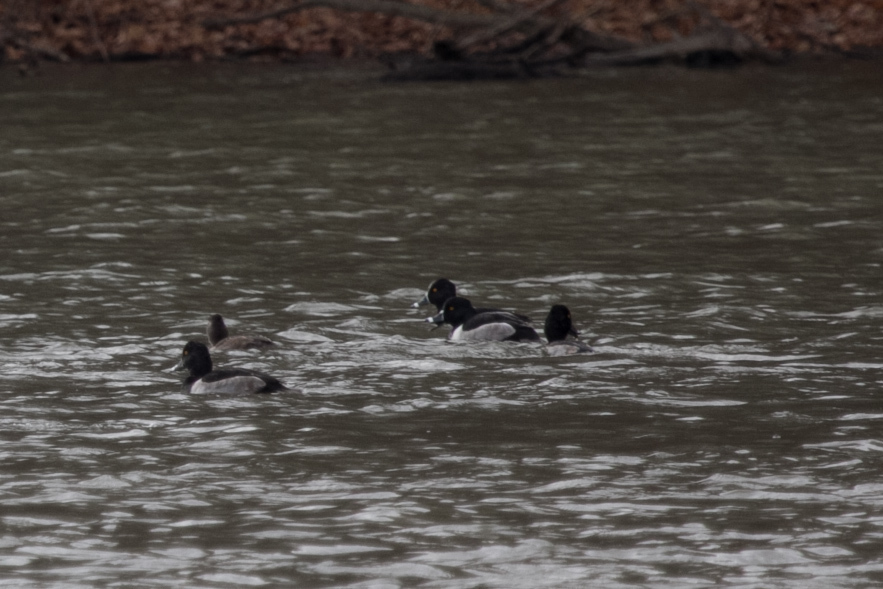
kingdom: Animalia
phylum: Chordata
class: Aves
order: Anseriformes
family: Anatidae
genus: Aythya
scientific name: Aythya collaris
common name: Ring-necked duck
